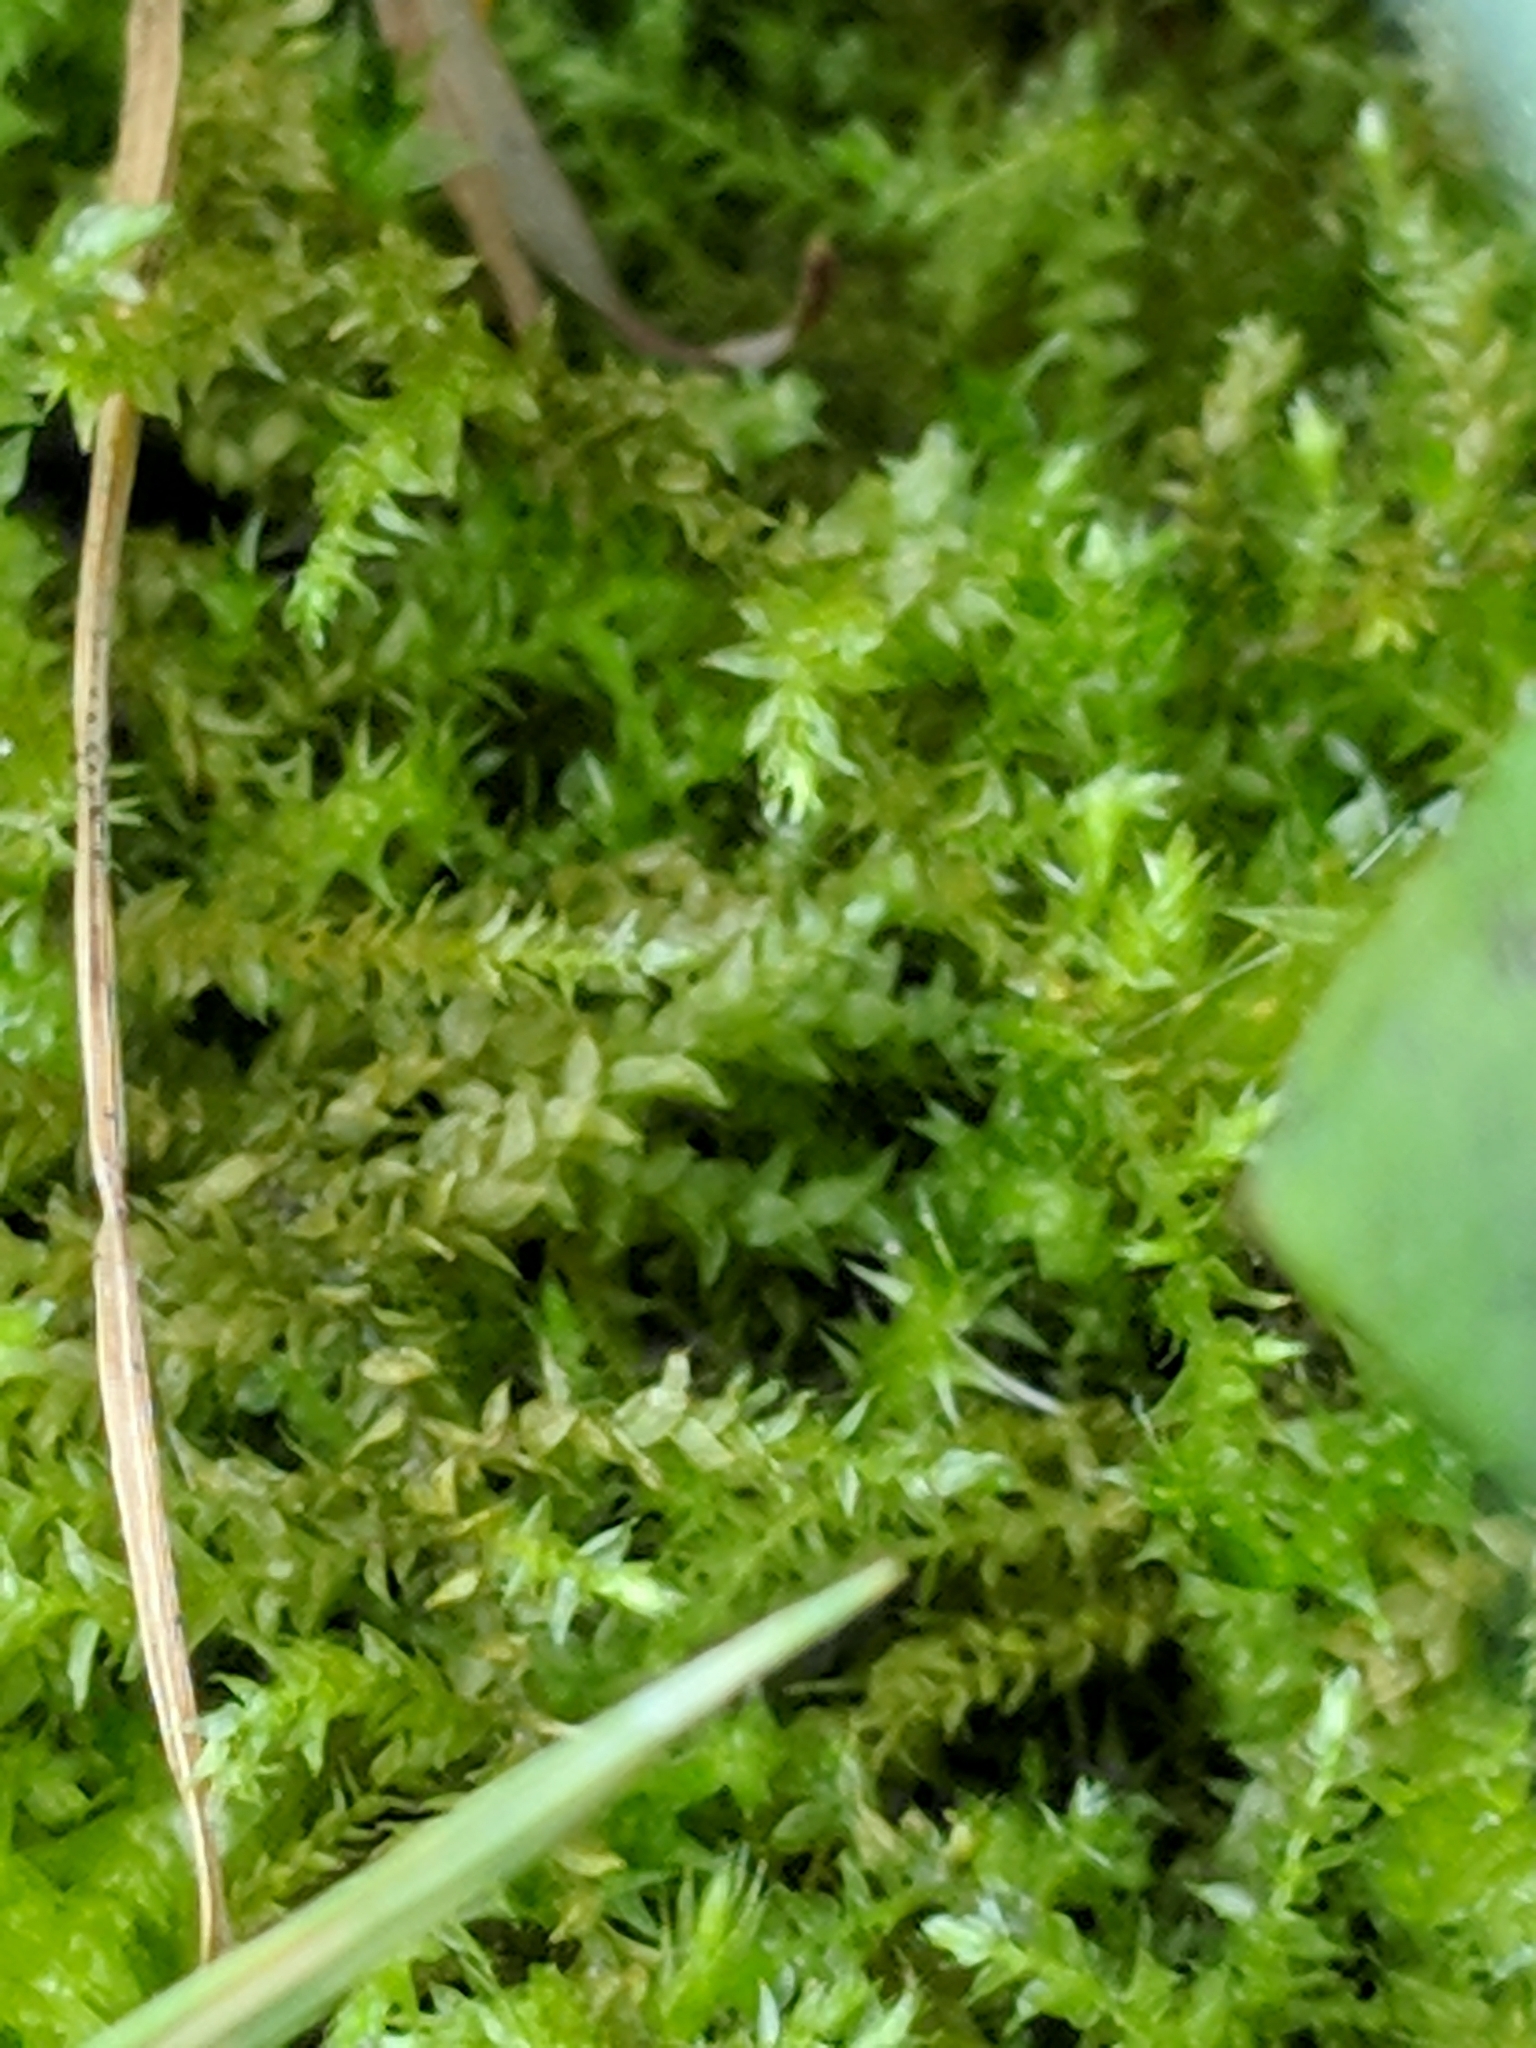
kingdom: Plantae
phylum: Bryophyta
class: Bryopsida
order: Hypnales
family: Brachytheciaceae
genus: Oxyrrhynchium
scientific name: Oxyrrhynchium hians
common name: Spreading beaked moss
